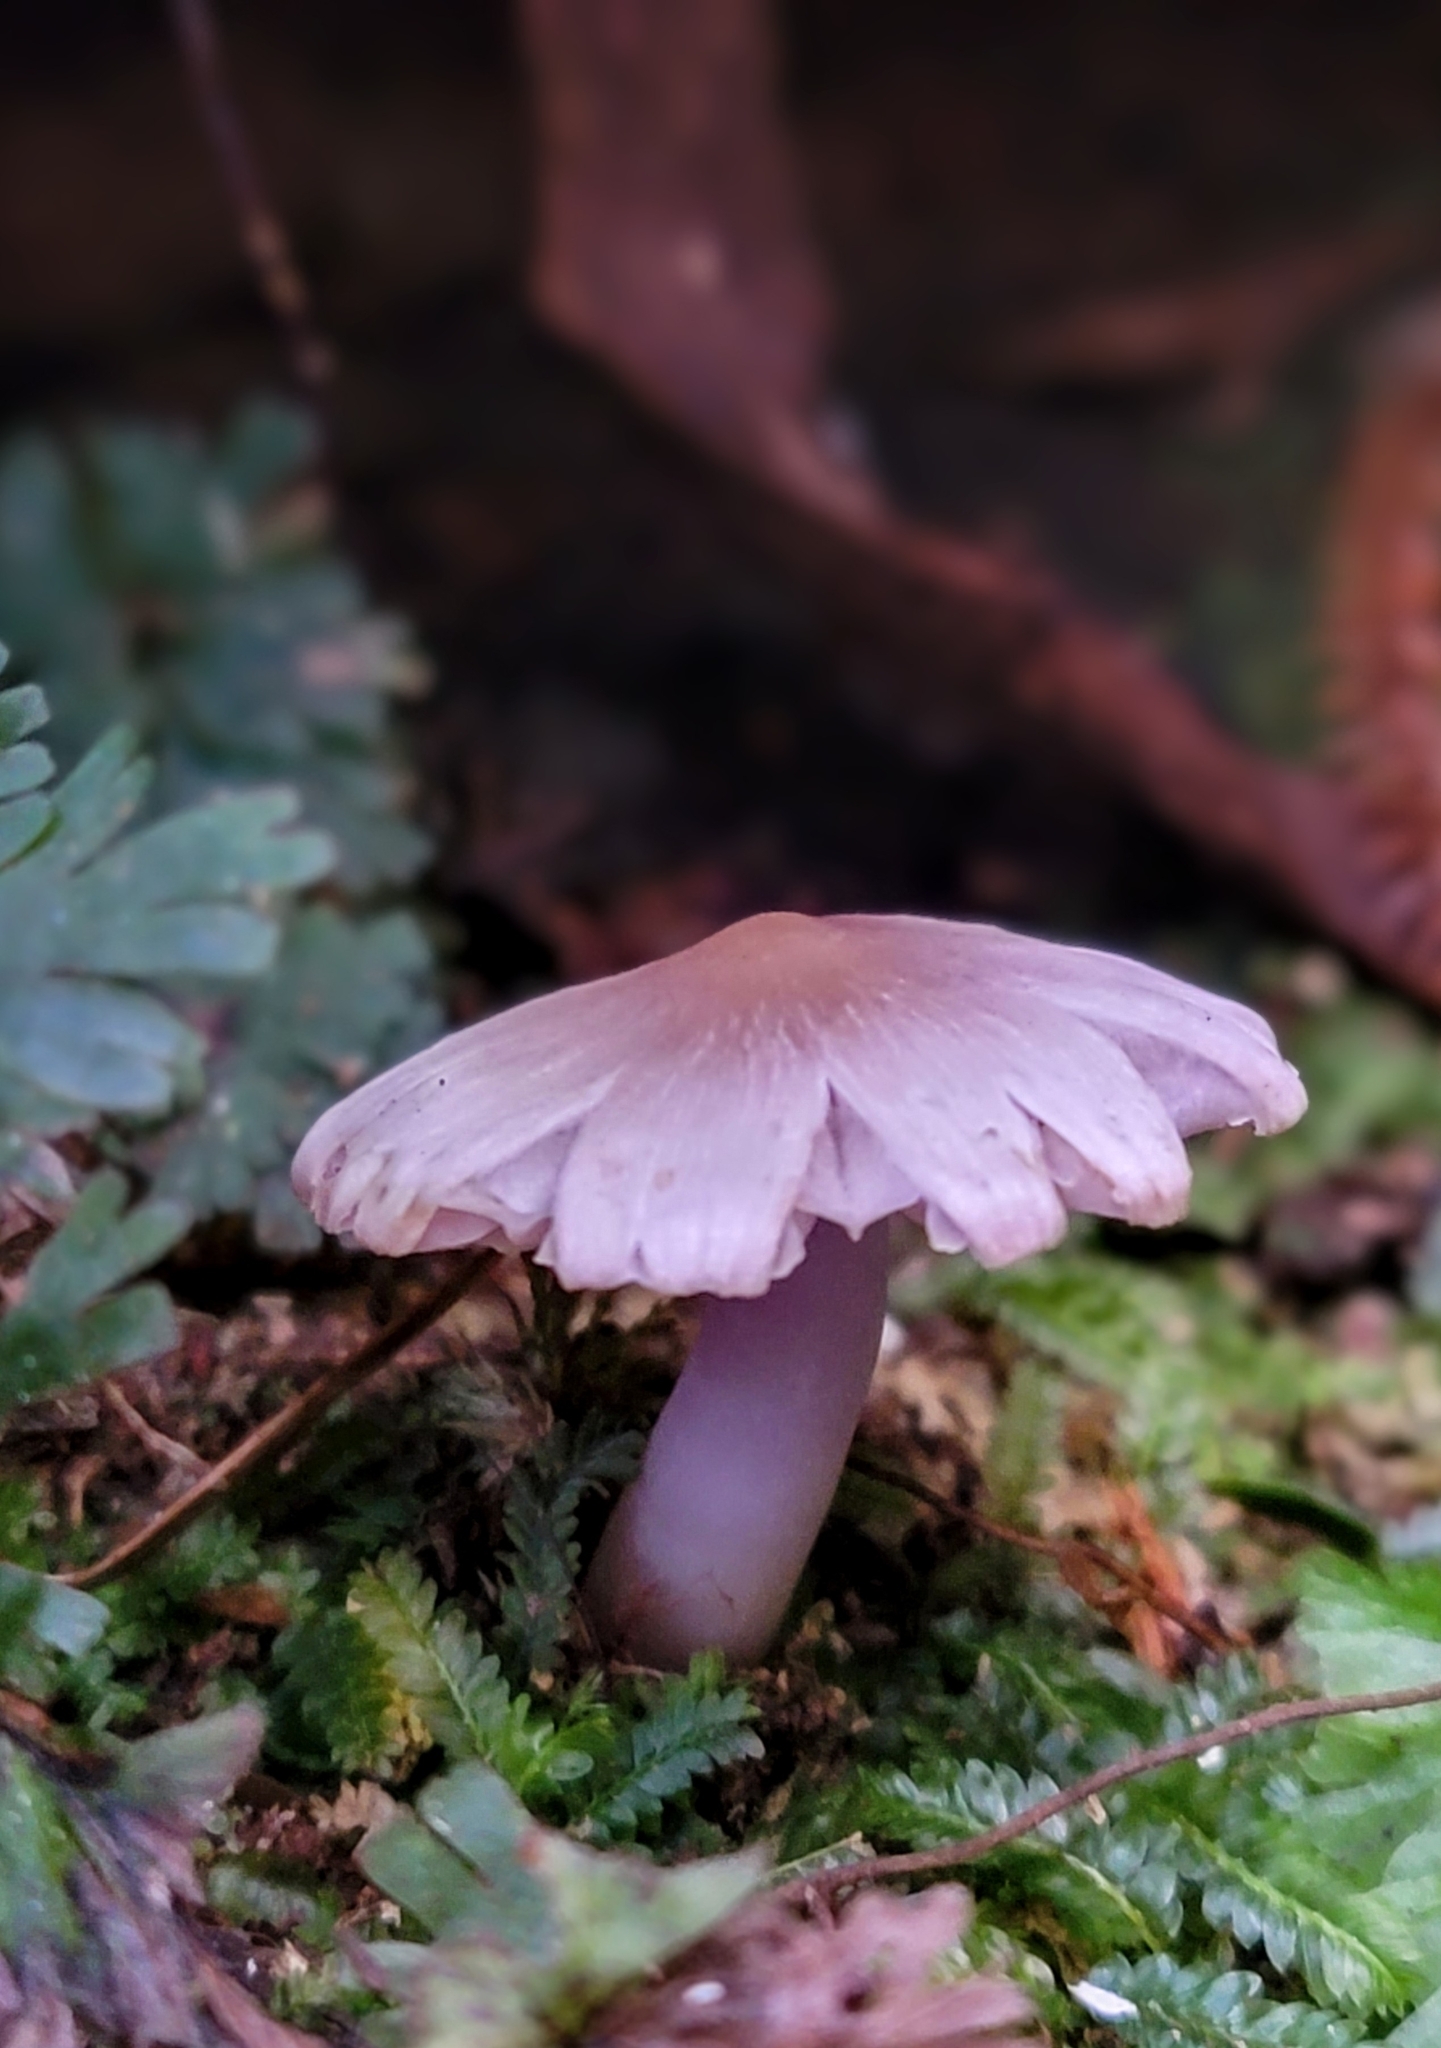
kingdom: Fungi
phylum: Basidiomycota
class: Agaricomycetes
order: Agaricales
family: Hygrophoraceae
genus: Porpolomopsis
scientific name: Porpolomopsis lewelliniae
